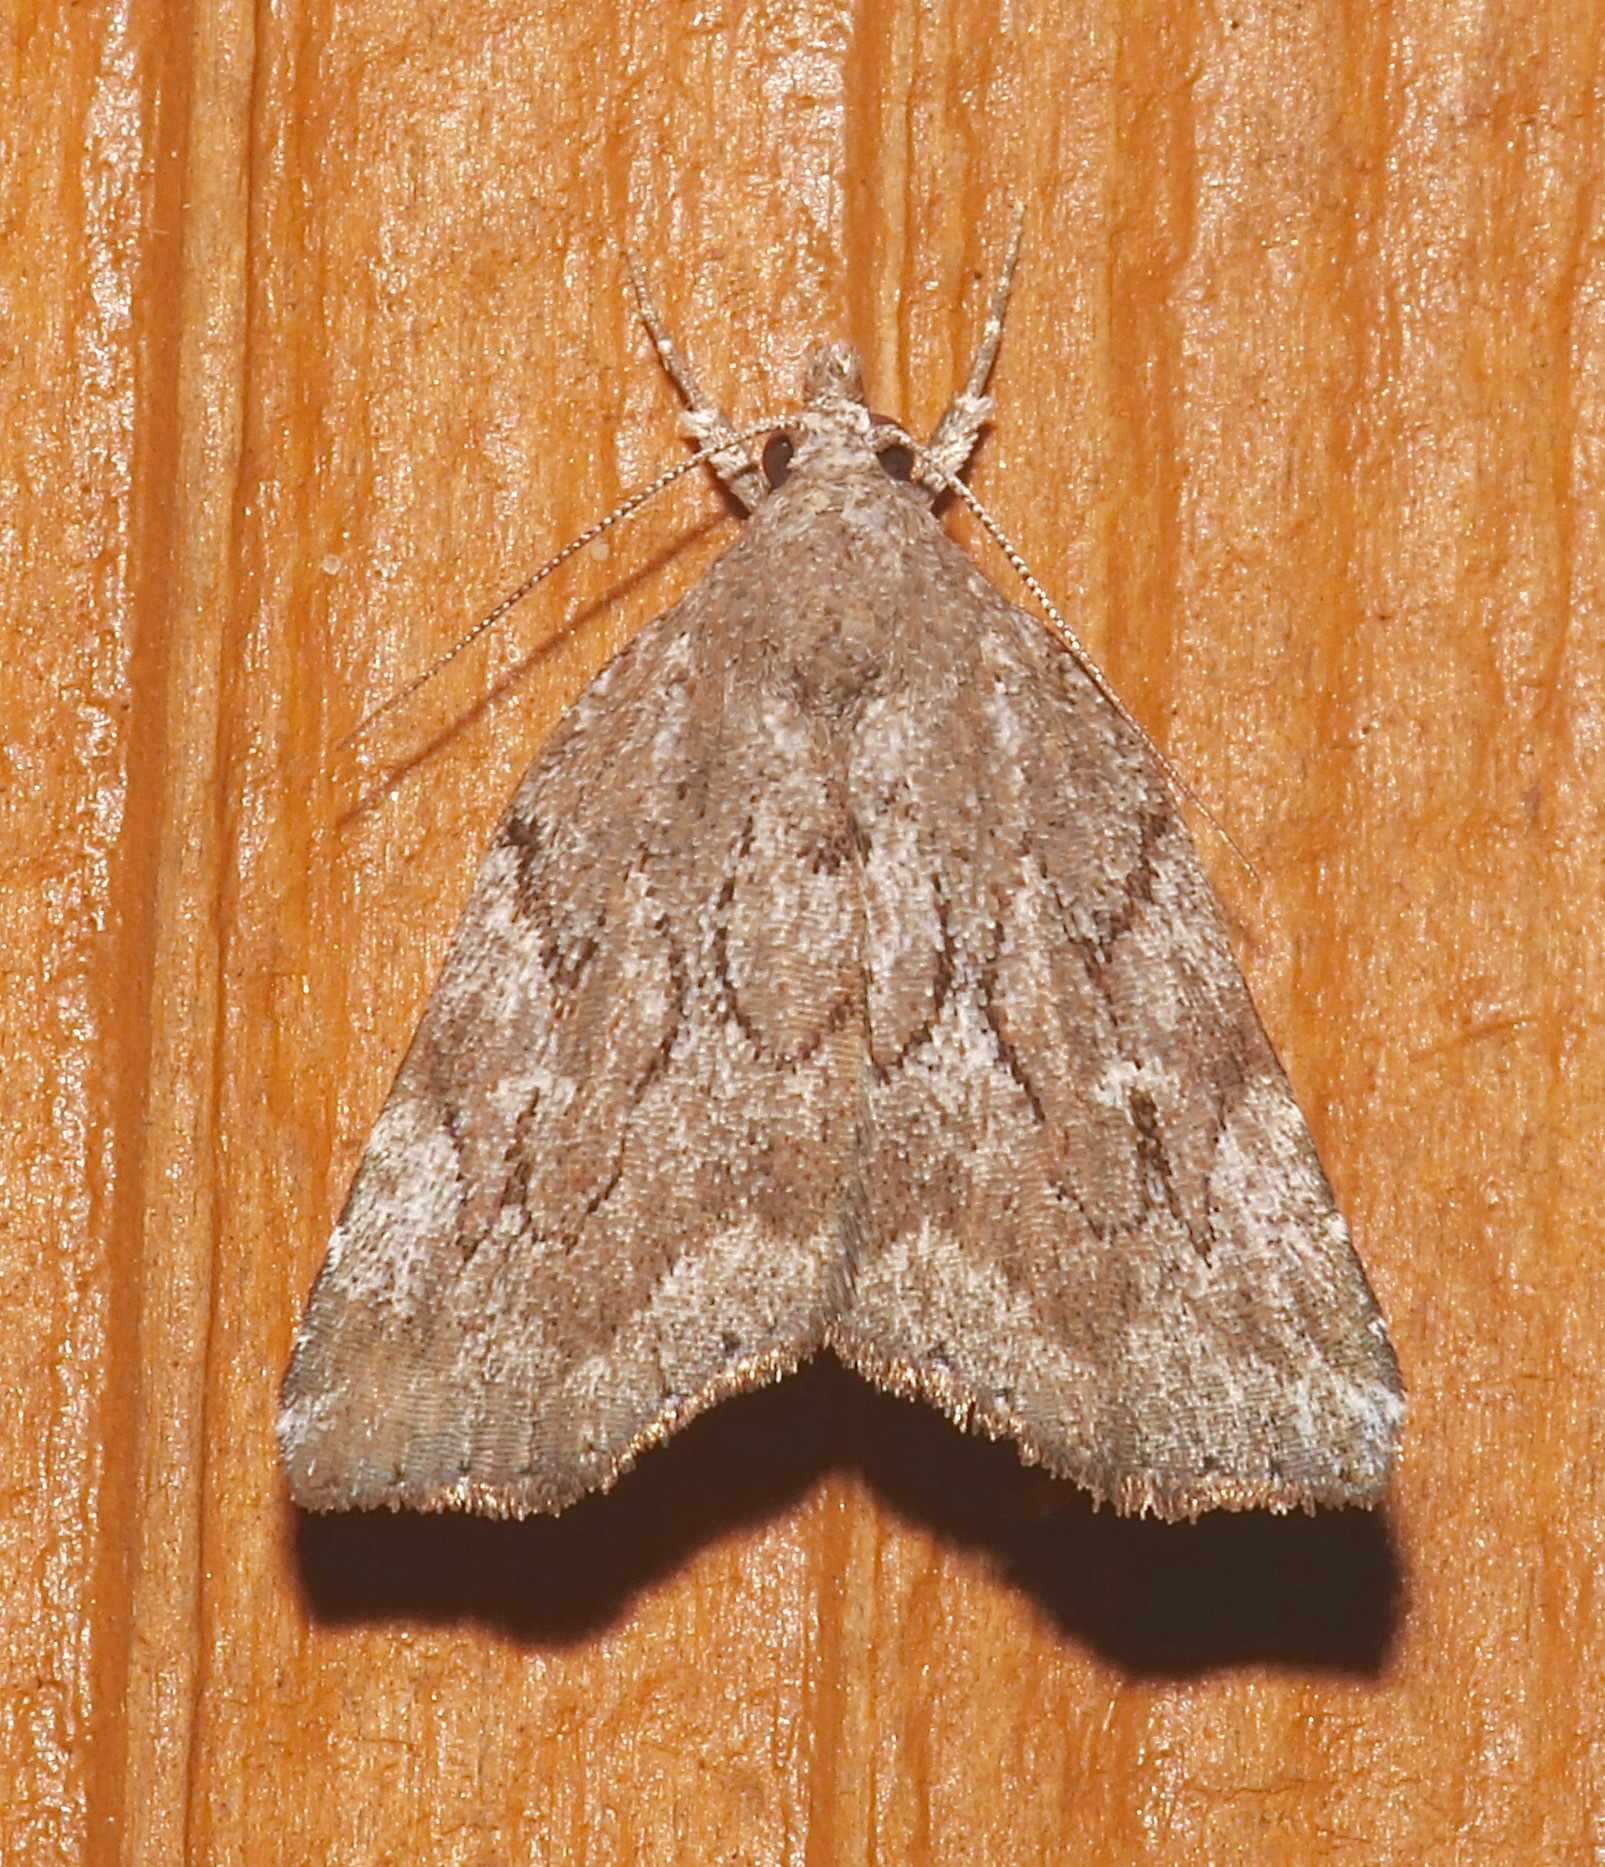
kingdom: Animalia
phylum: Arthropoda
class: Insecta
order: Lepidoptera
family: Erebidae
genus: Cutina
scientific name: Cutina albopunctella
